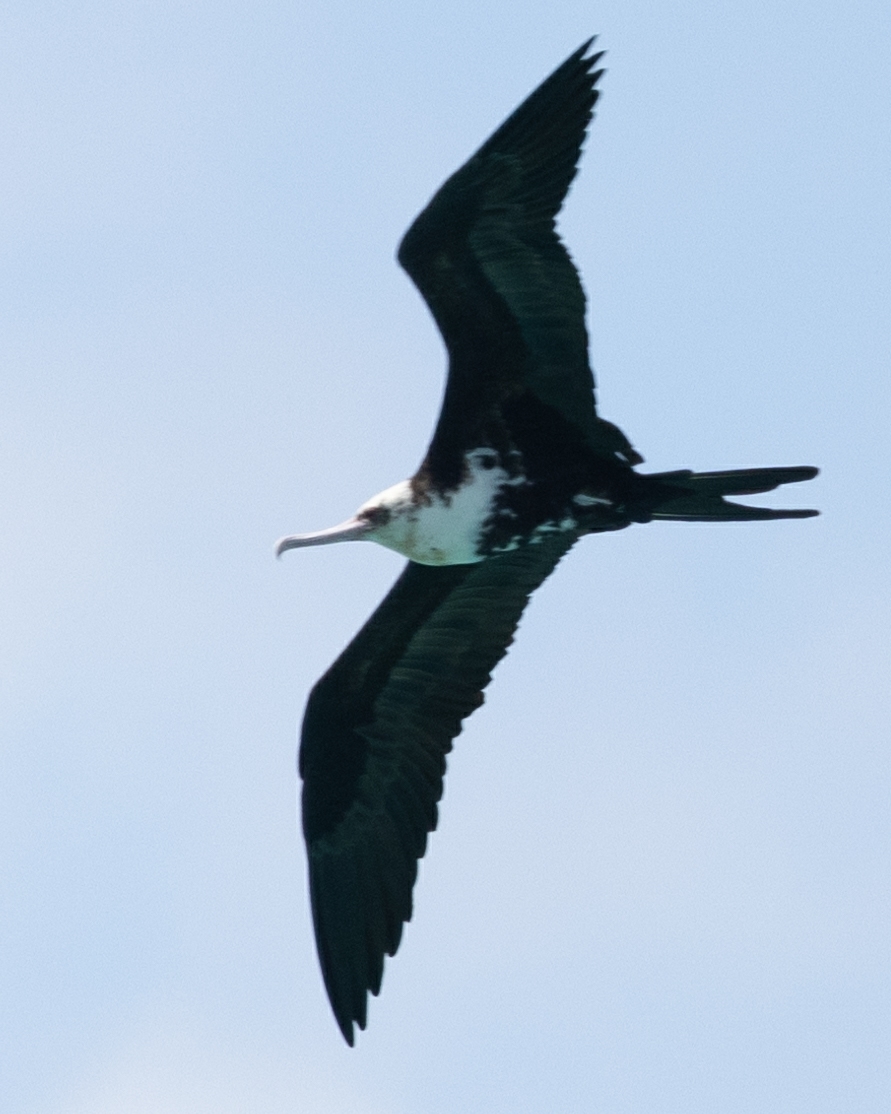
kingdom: Animalia
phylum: Chordata
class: Aves
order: Suliformes
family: Fregatidae
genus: Fregata
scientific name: Fregata ariel
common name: Lesser frigatebird
